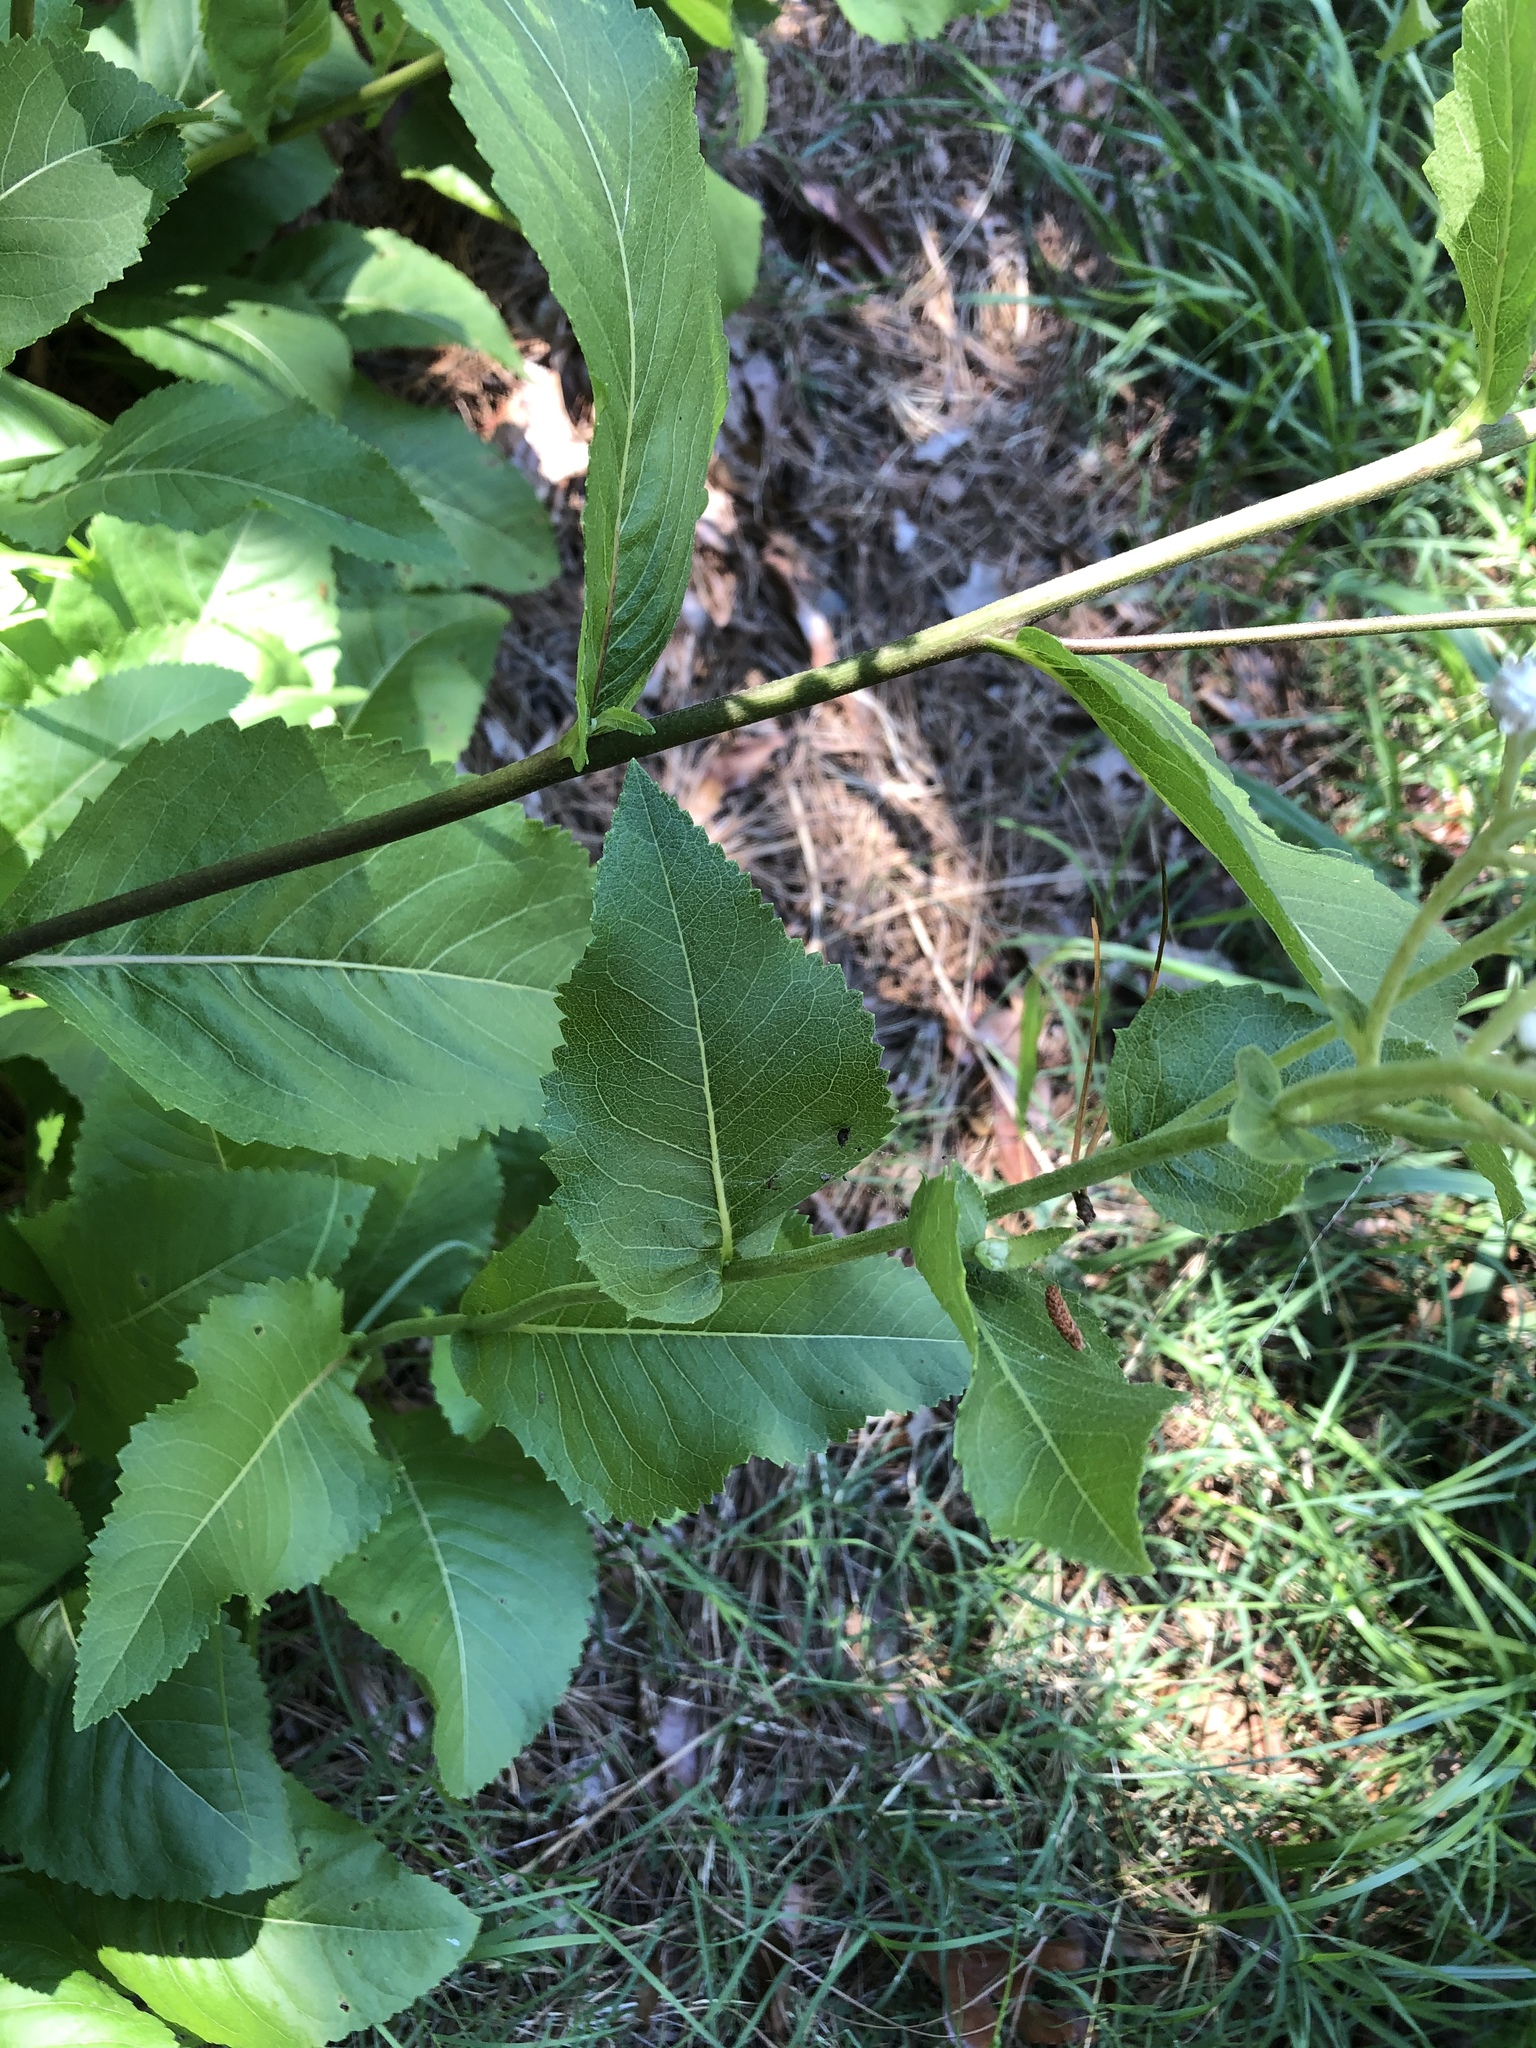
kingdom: Plantae
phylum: Tracheophyta
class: Magnoliopsida
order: Asterales
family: Asteraceae
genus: Parthenium
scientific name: Parthenium integrifolium
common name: American feverfew
